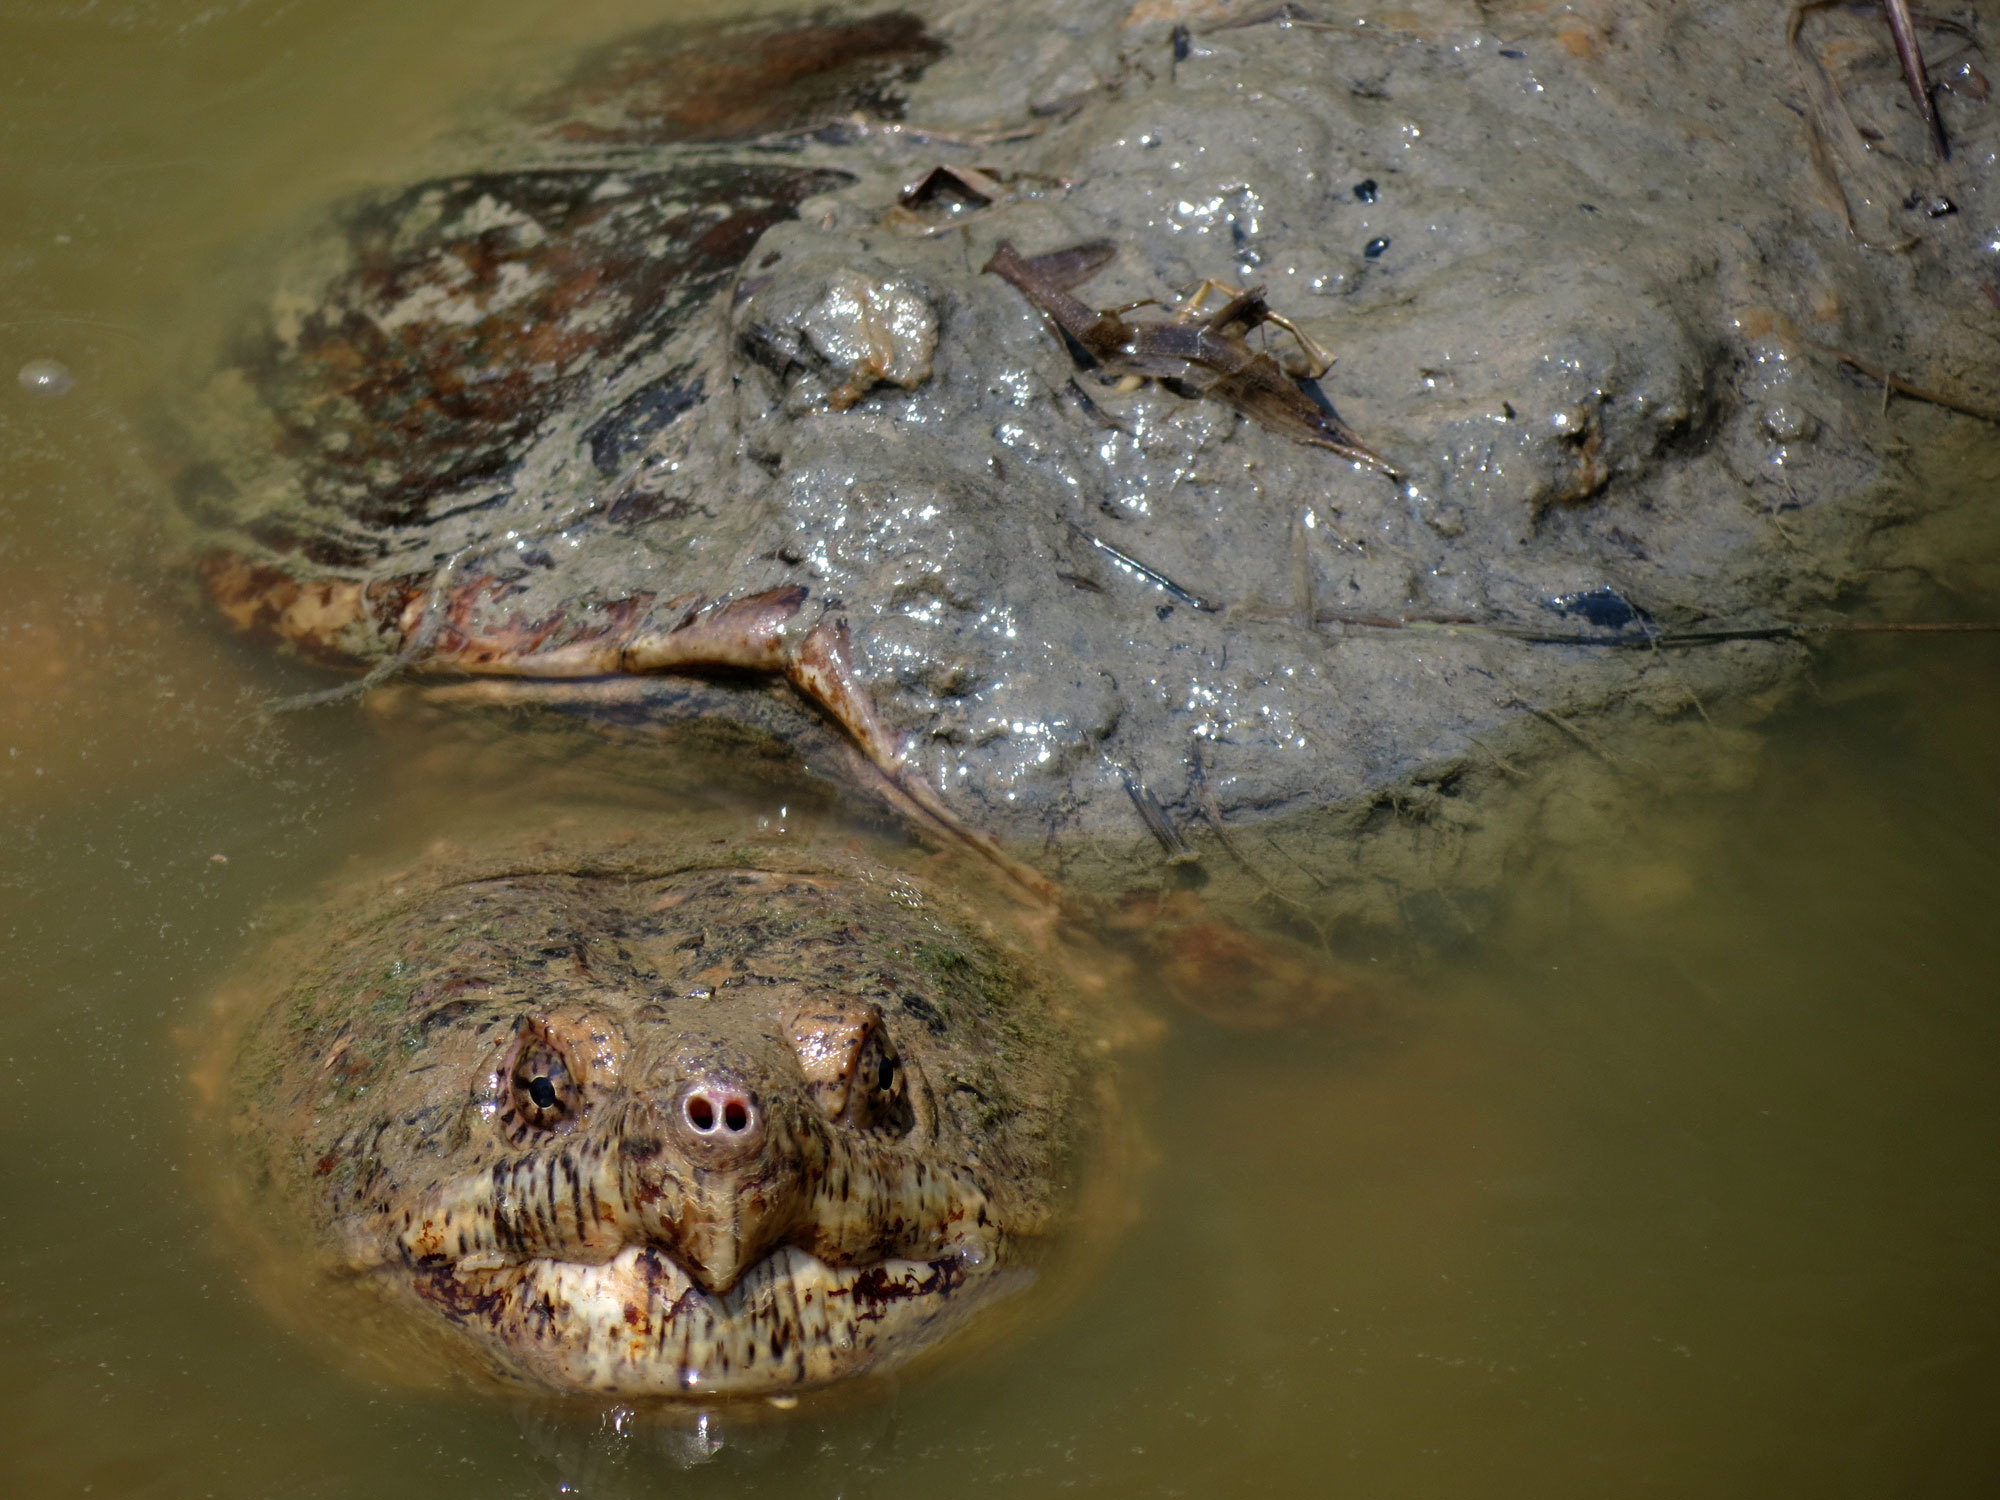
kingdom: Animalia
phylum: Chordata
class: Testudines
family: Chelydridae
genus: Chelydra
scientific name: Chelydra serpentina
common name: Common snapping turtle
